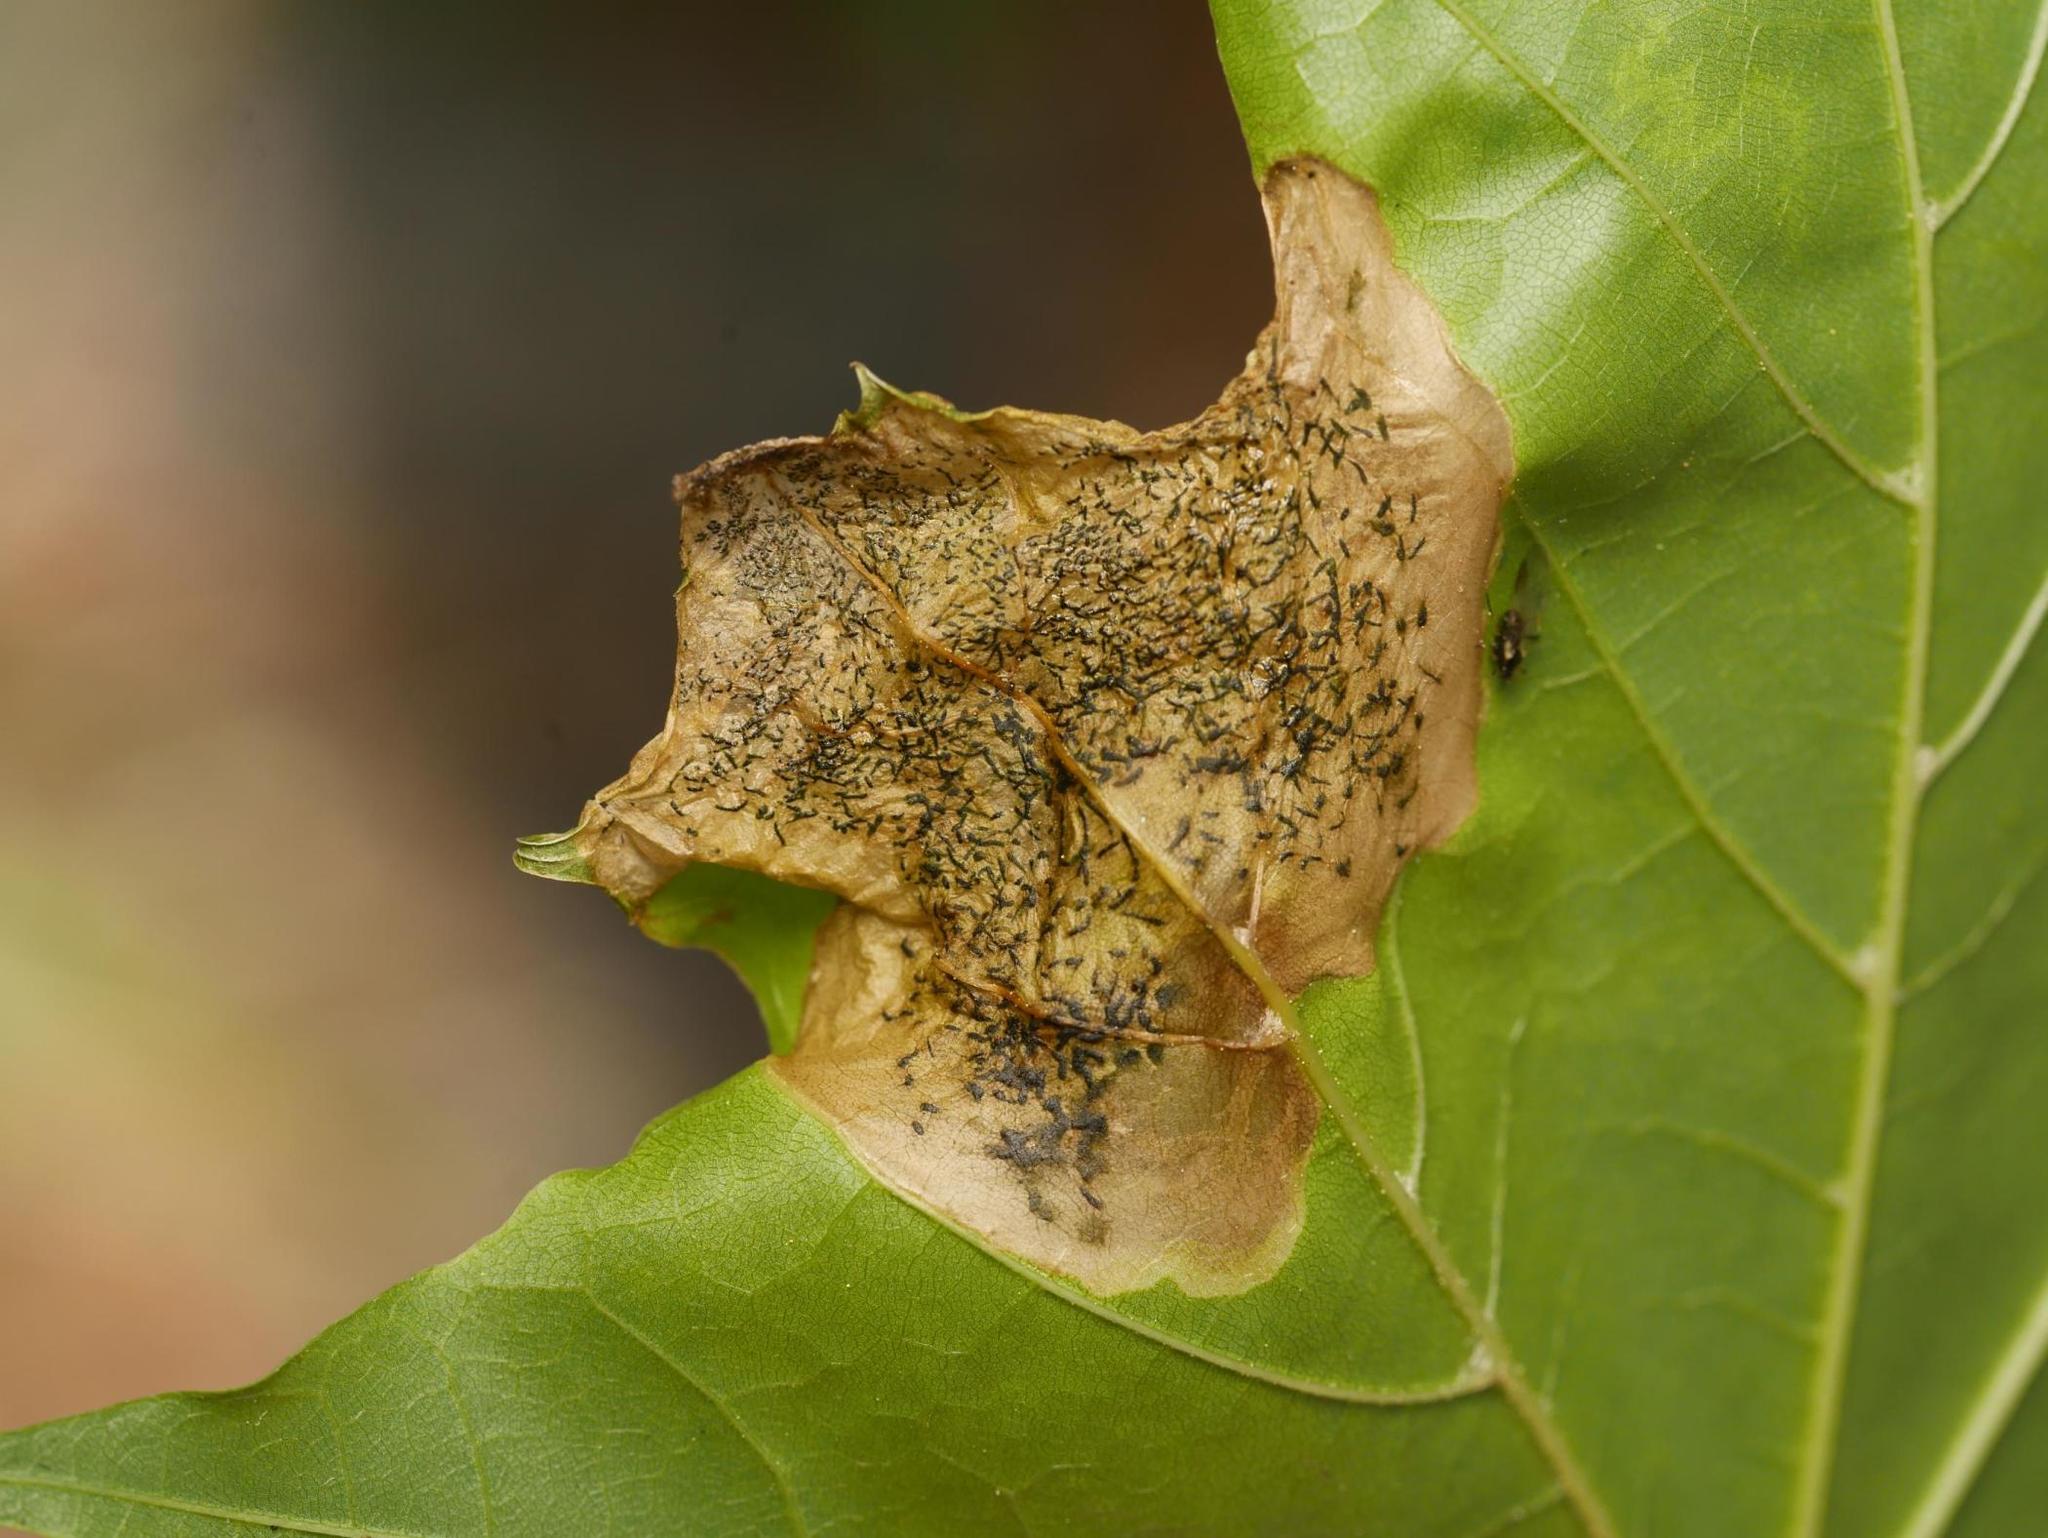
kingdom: Animalia
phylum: Arthropoda
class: Insecta
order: Hymenoptera
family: Tenthredinidae
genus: Hinatara
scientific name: Hinatara recta
